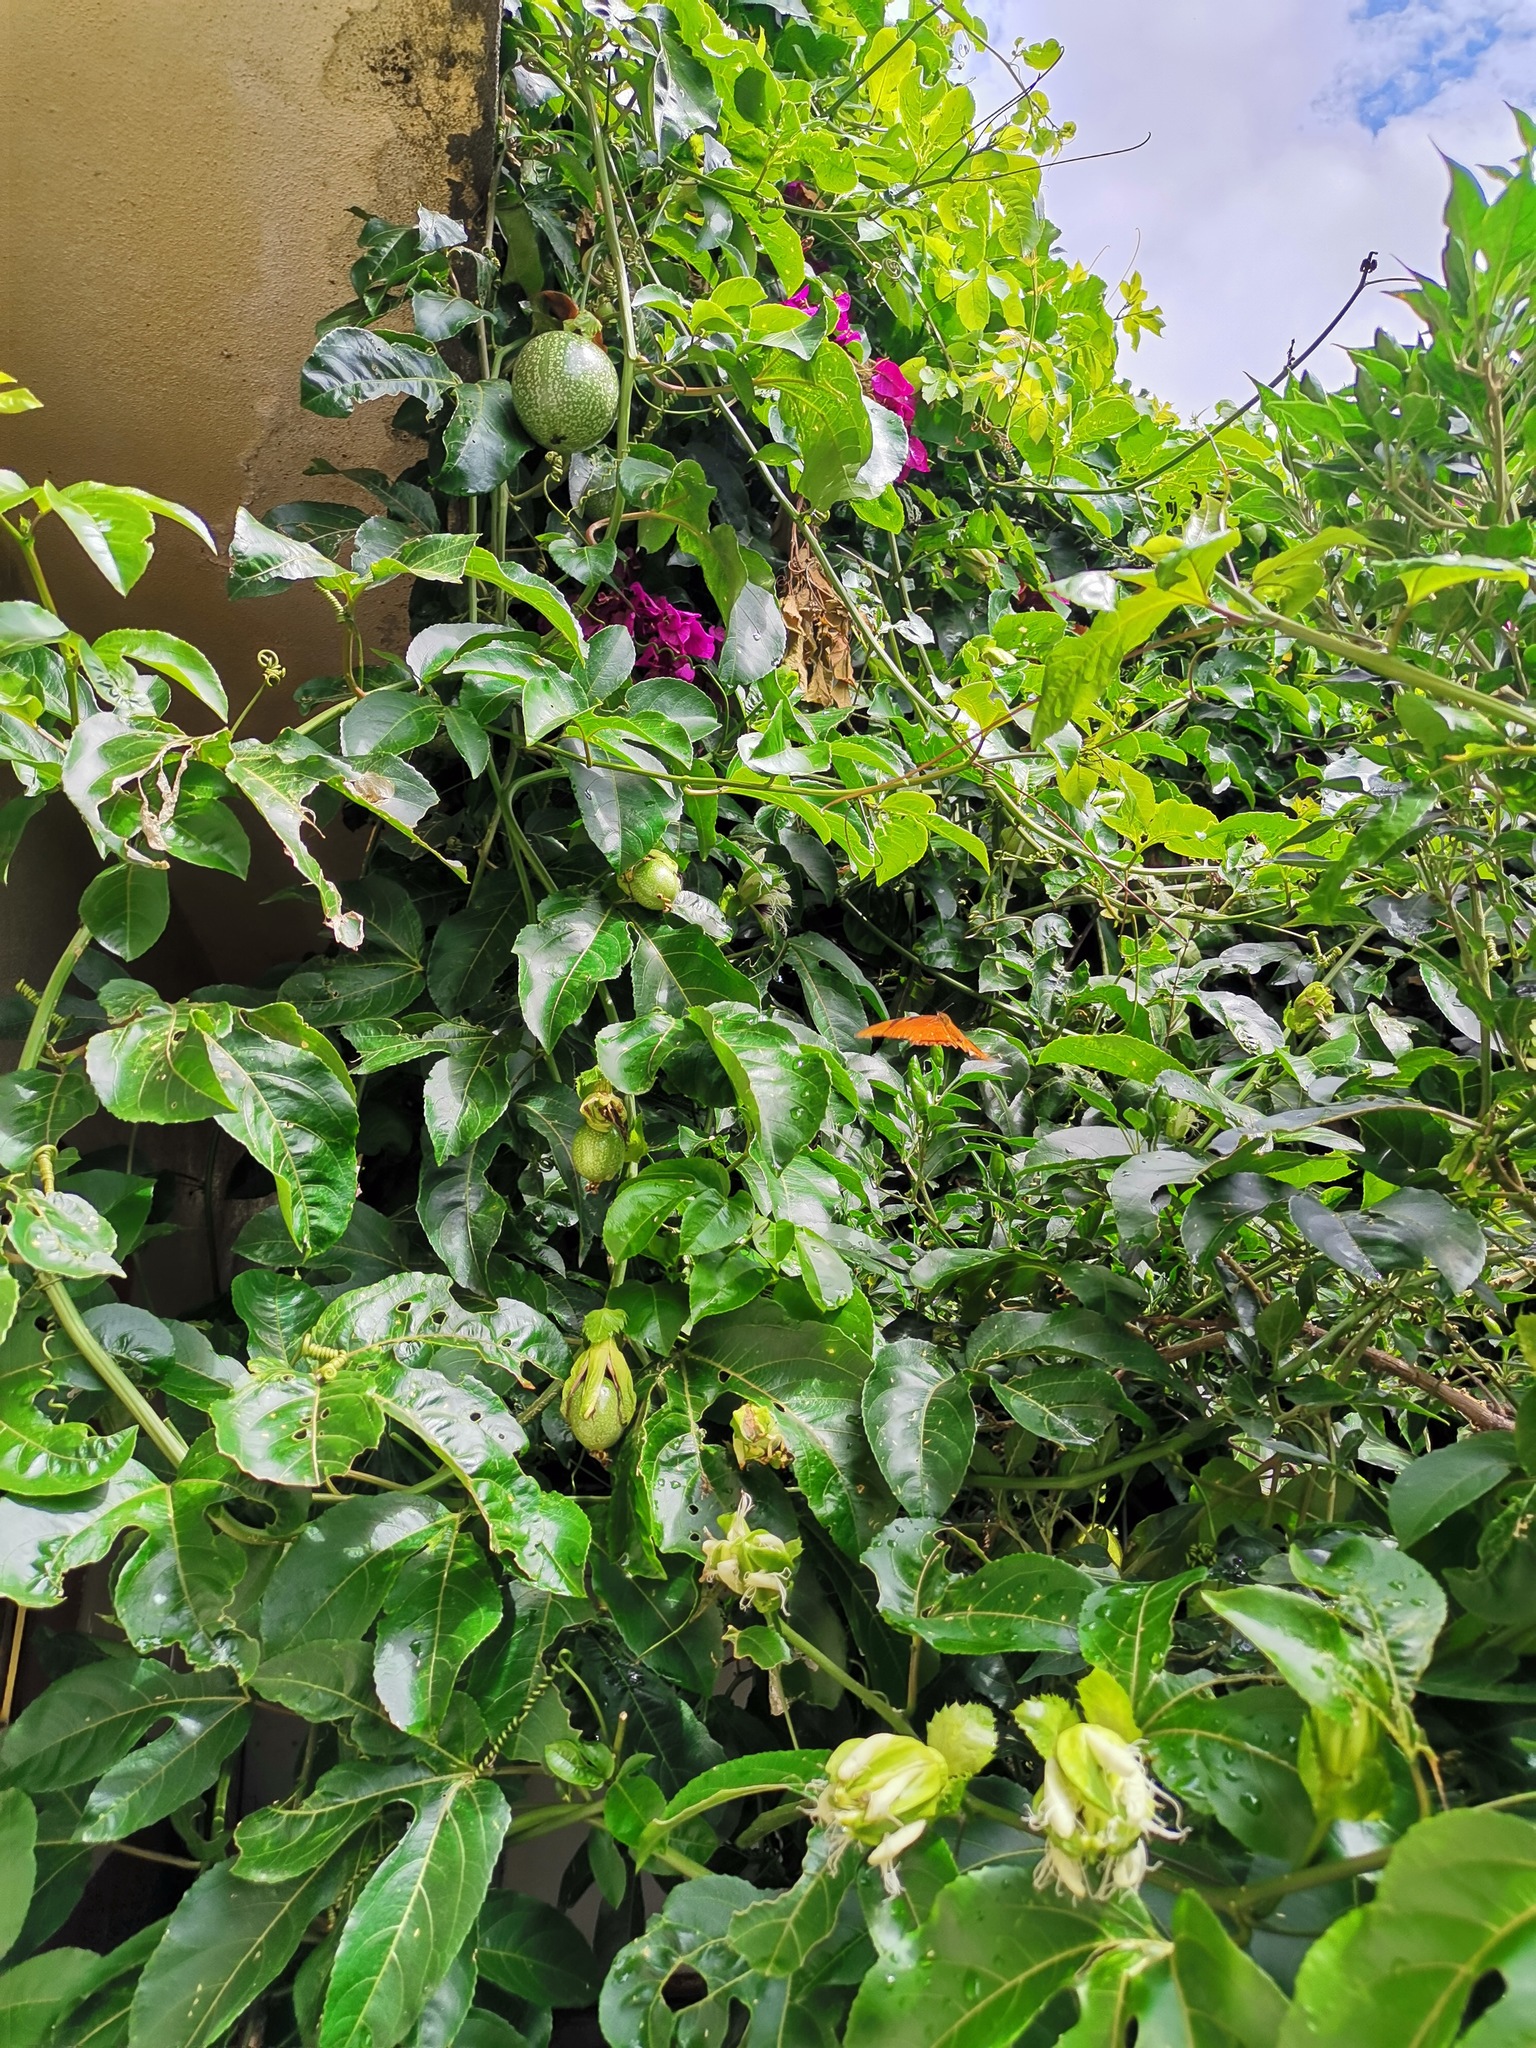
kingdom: Animalia
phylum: Arthropoda
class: Insecta
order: Lepidoptera
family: Nymphalidae
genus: Dione
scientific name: Dione juno
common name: Juno silverspot
